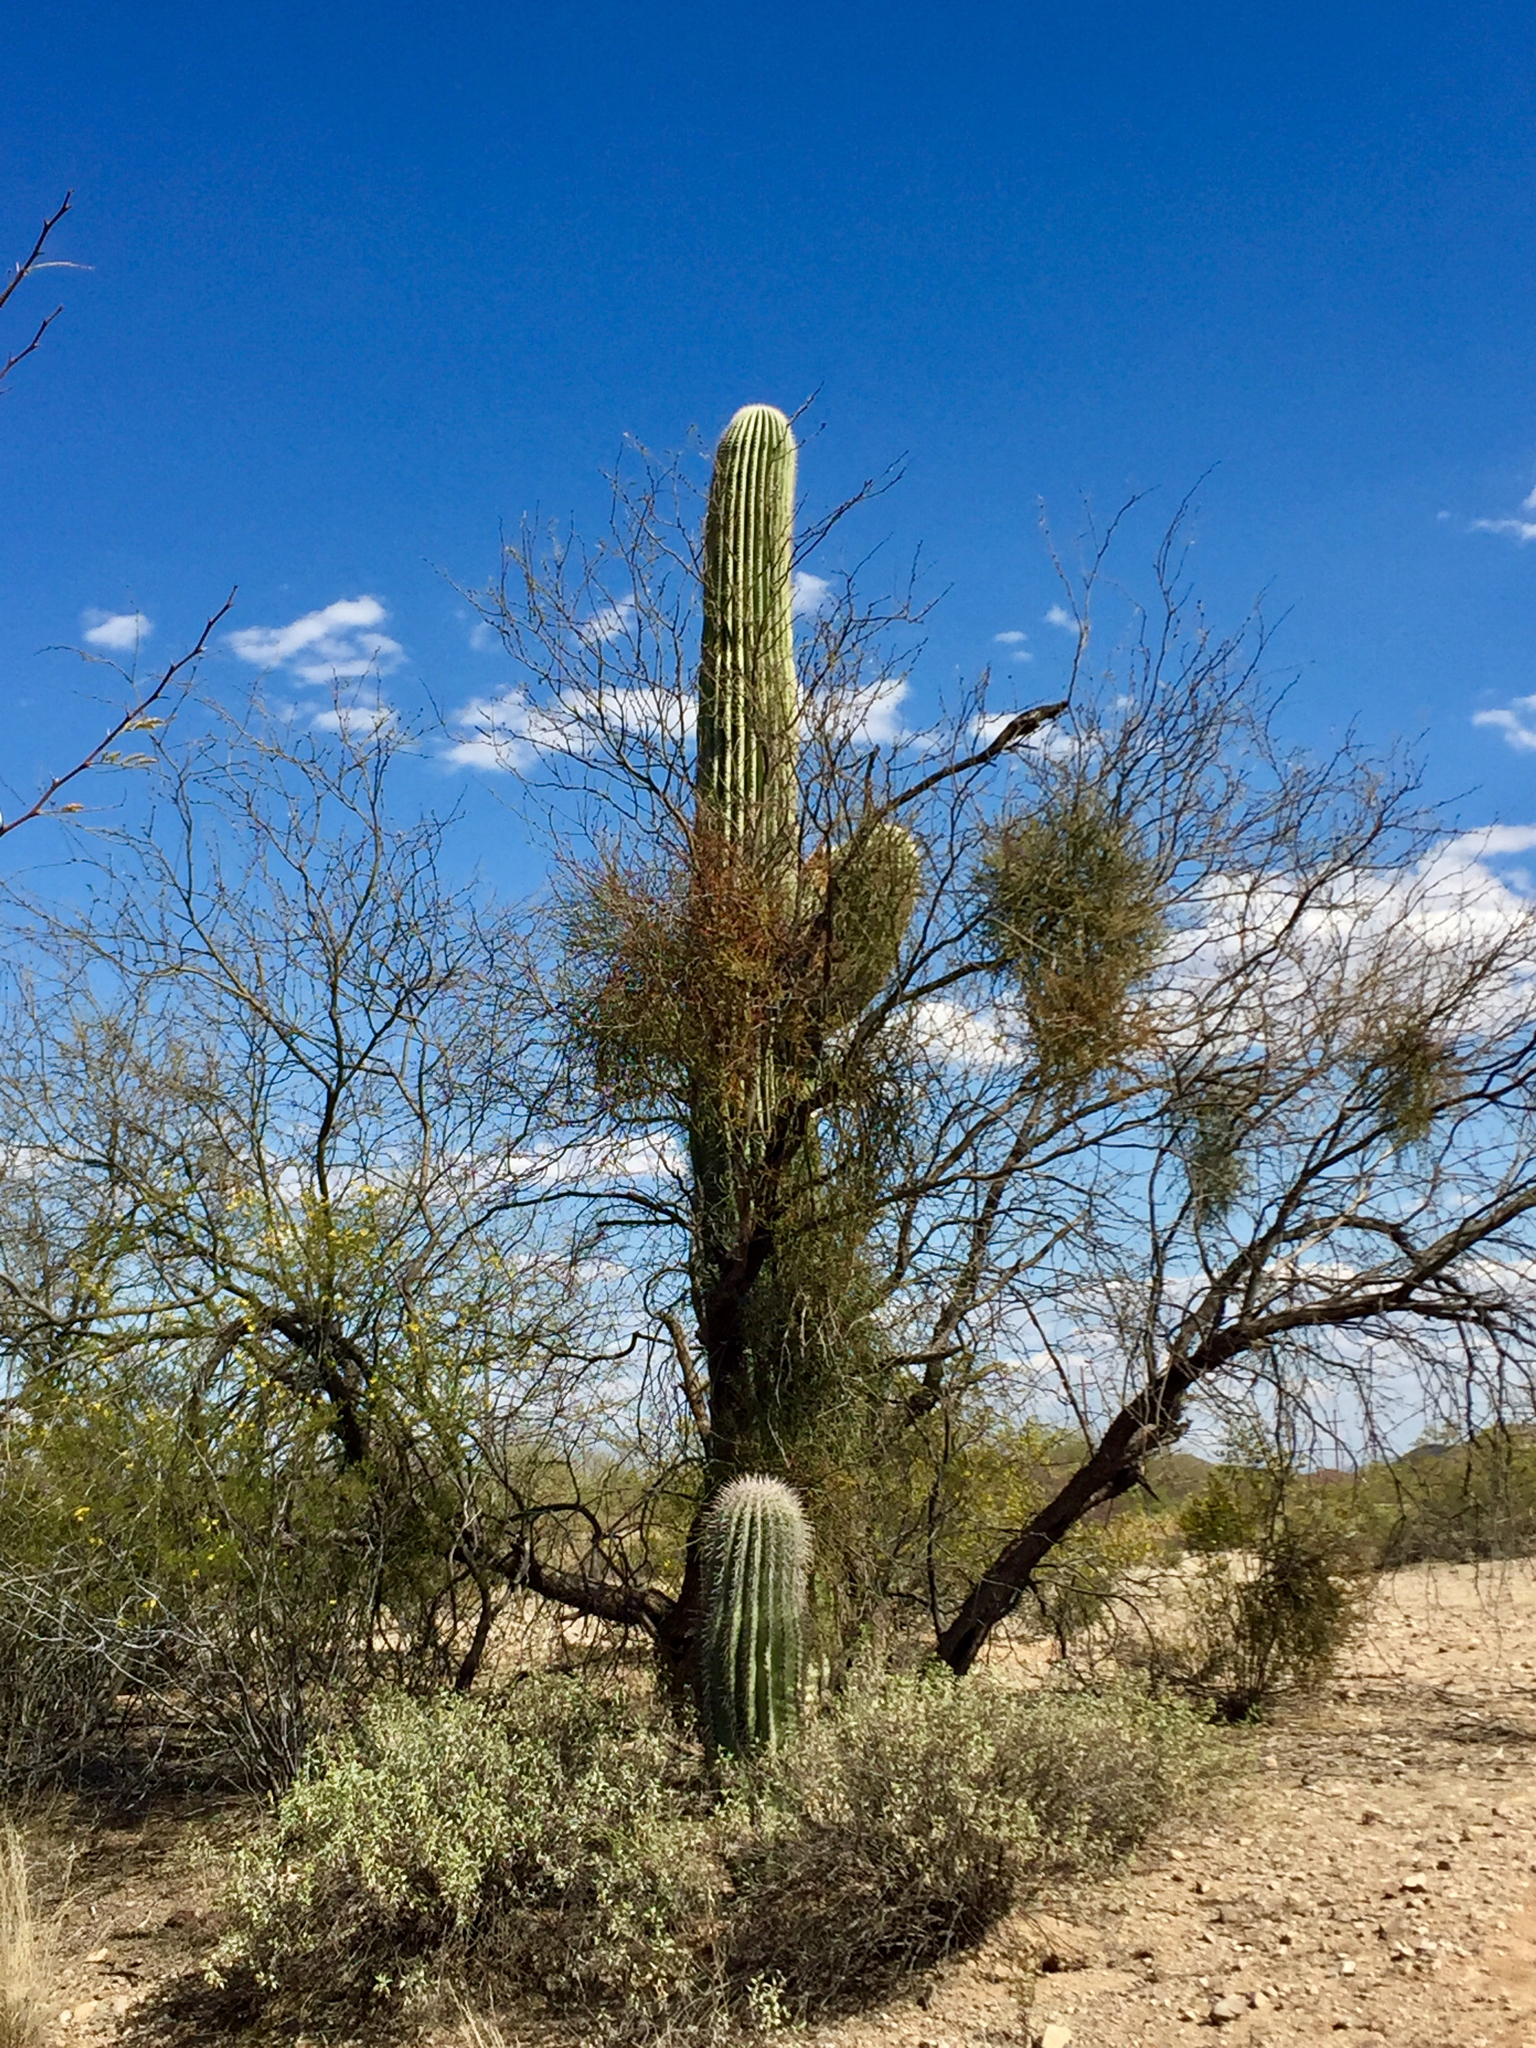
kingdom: Plantae
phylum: Tracheophyta
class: Magnoliopsida
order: Caryophyllales
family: Cactaceae
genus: Carnegiea
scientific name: Carnegiea gigantea
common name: Saguaro
